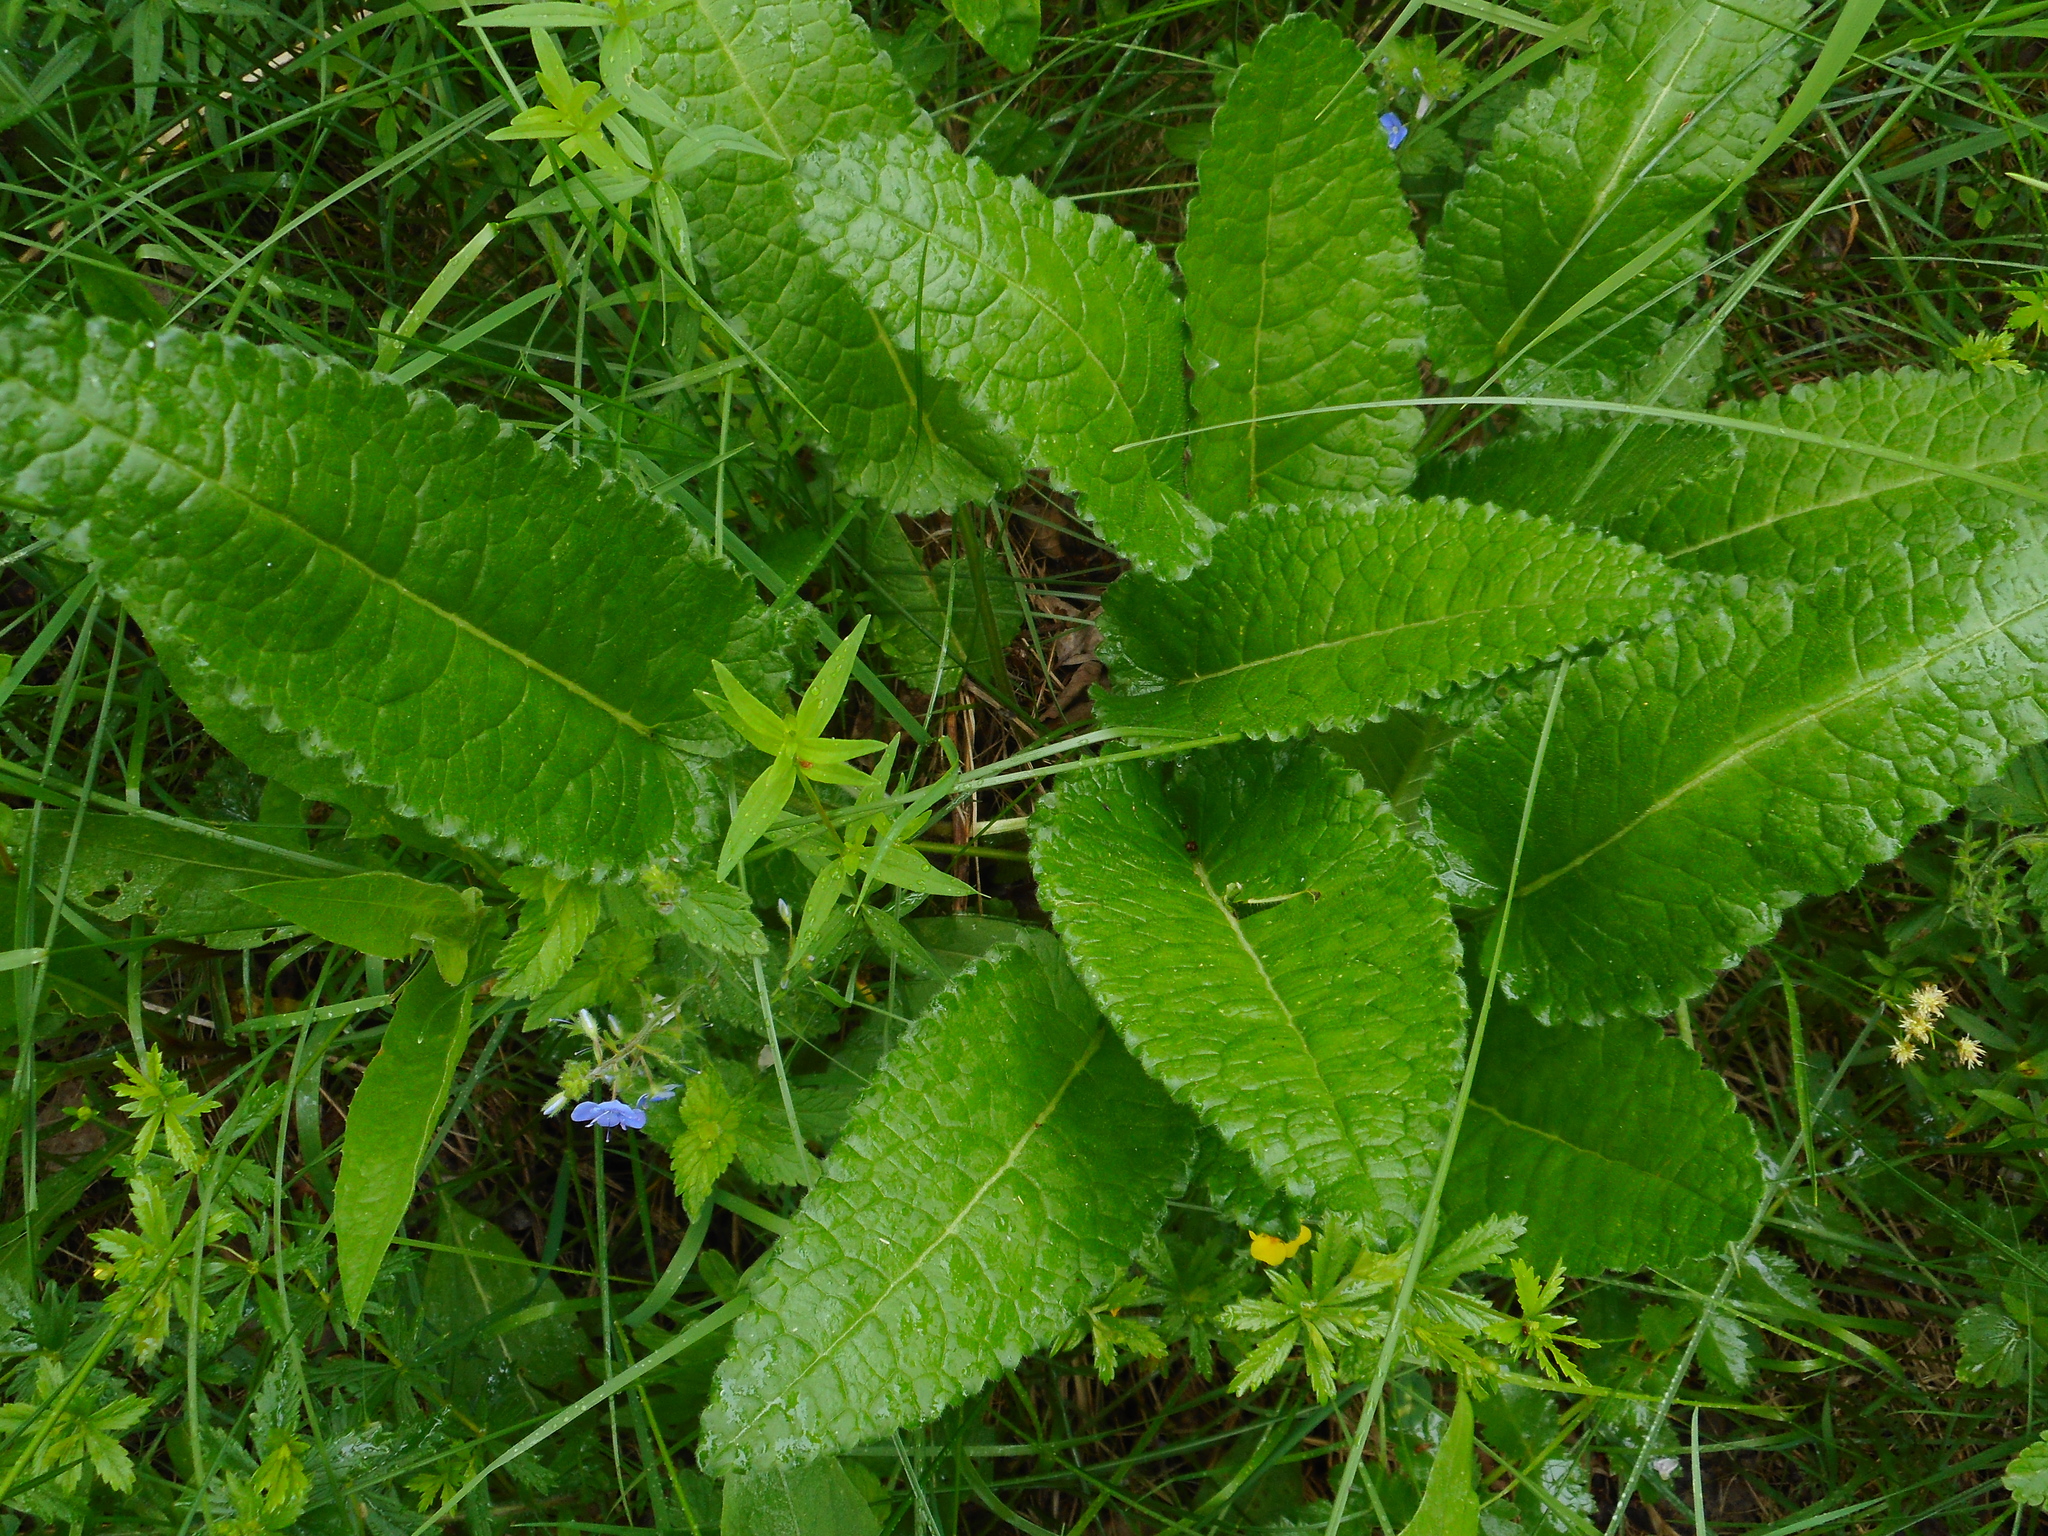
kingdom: Plantae
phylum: Tracheophyta
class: Magnoliopsida
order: Lamiales
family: Lamiaceae
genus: Betonica
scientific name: Betonica officinalis
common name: Bishop's-wort
